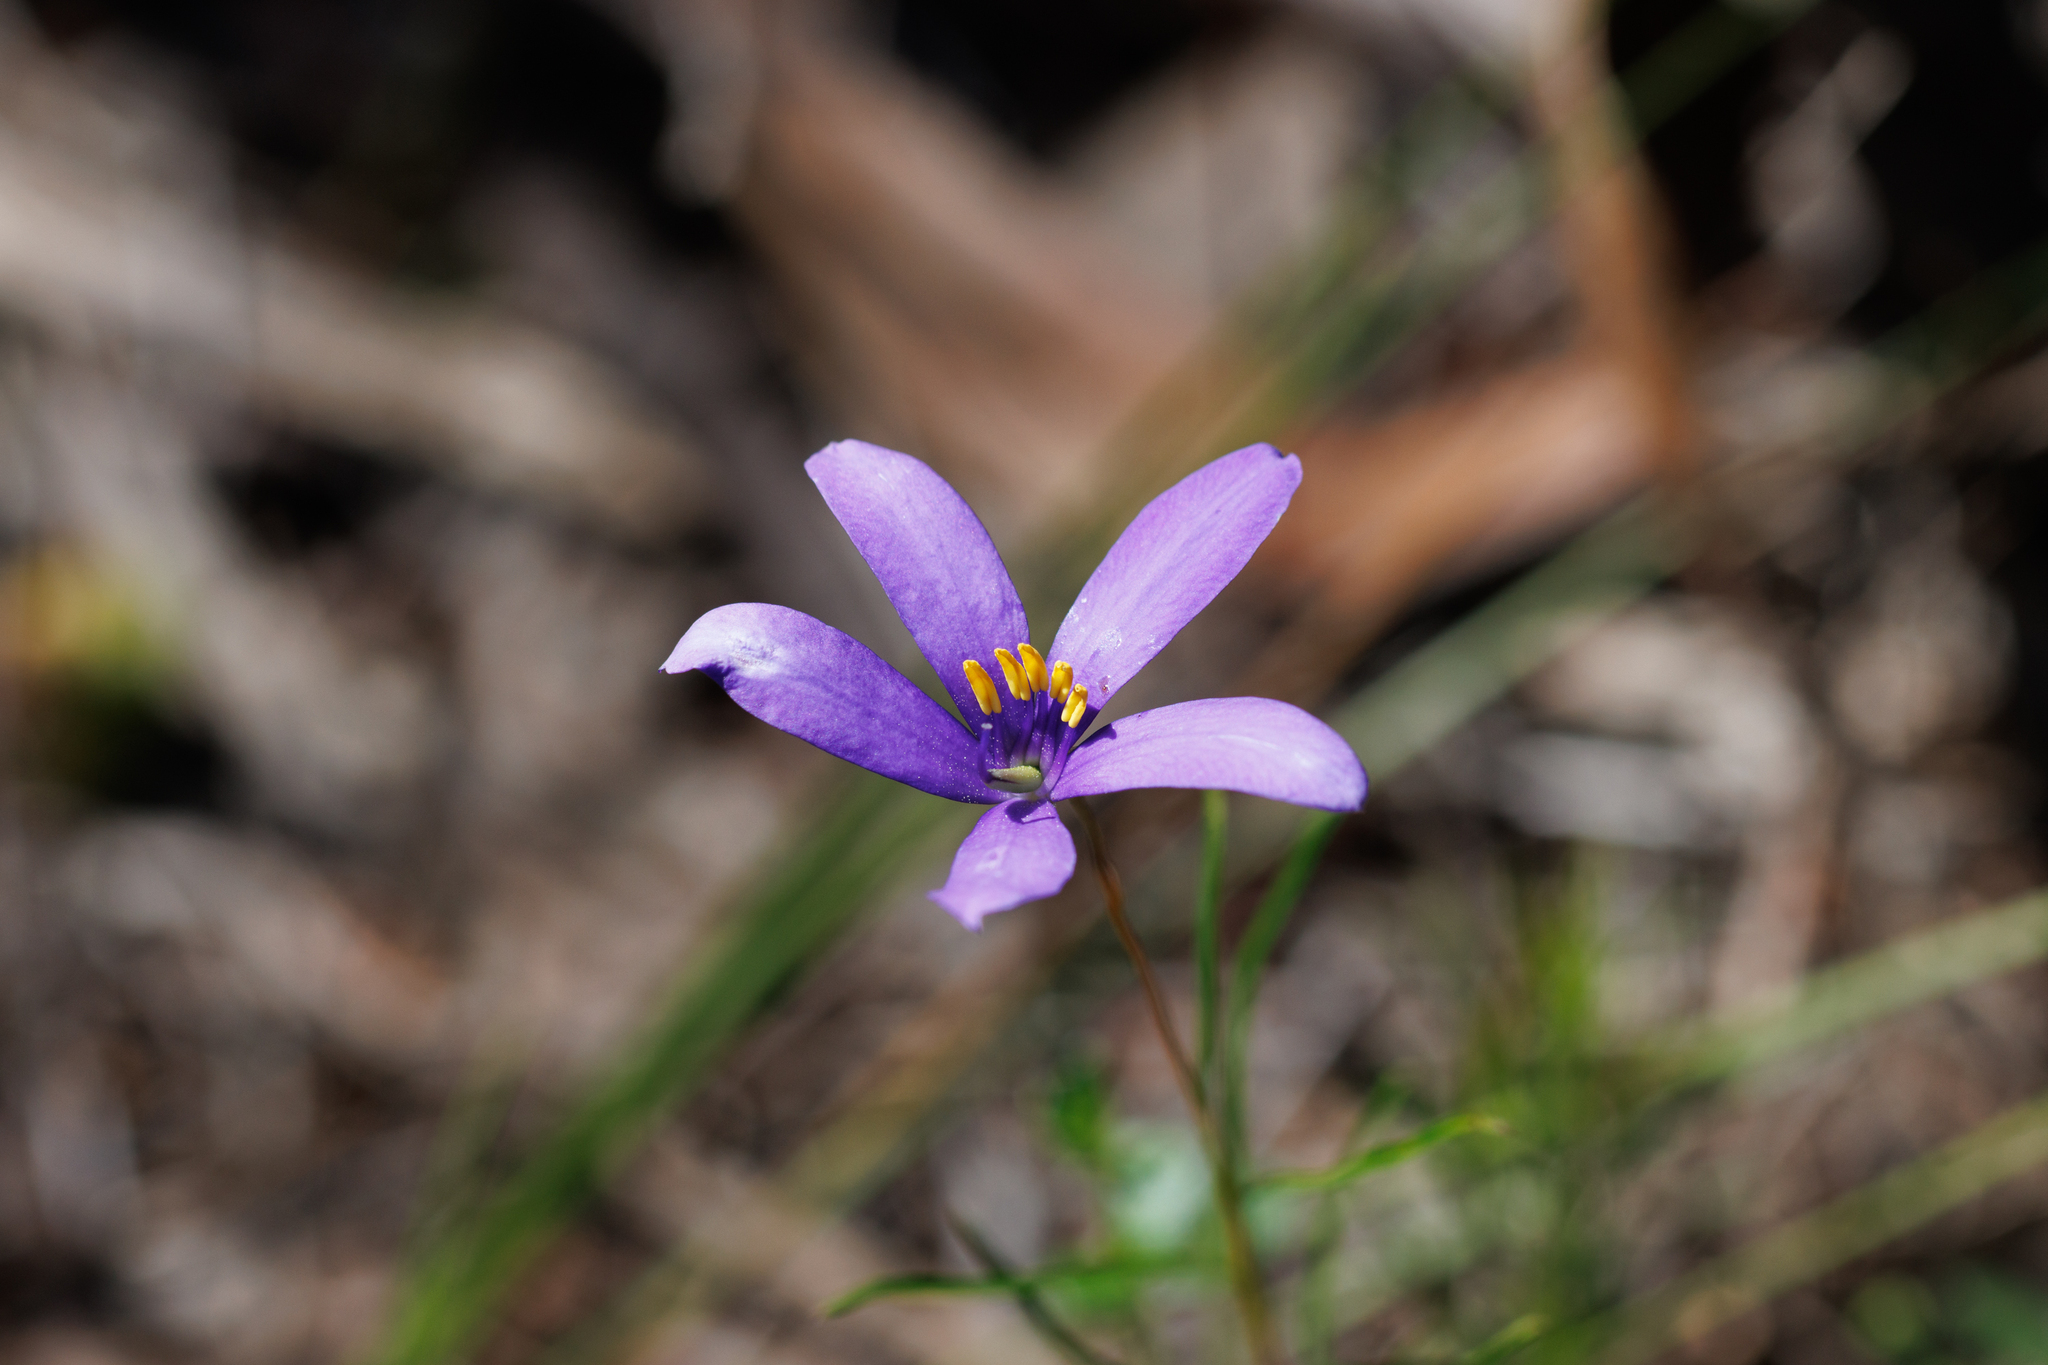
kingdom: Plantae
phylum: Tracheophyta
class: Magnoliopsida
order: Apiales
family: Pittosporaceae
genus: Cheiranthera
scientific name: Cheiranthera alternifolia
